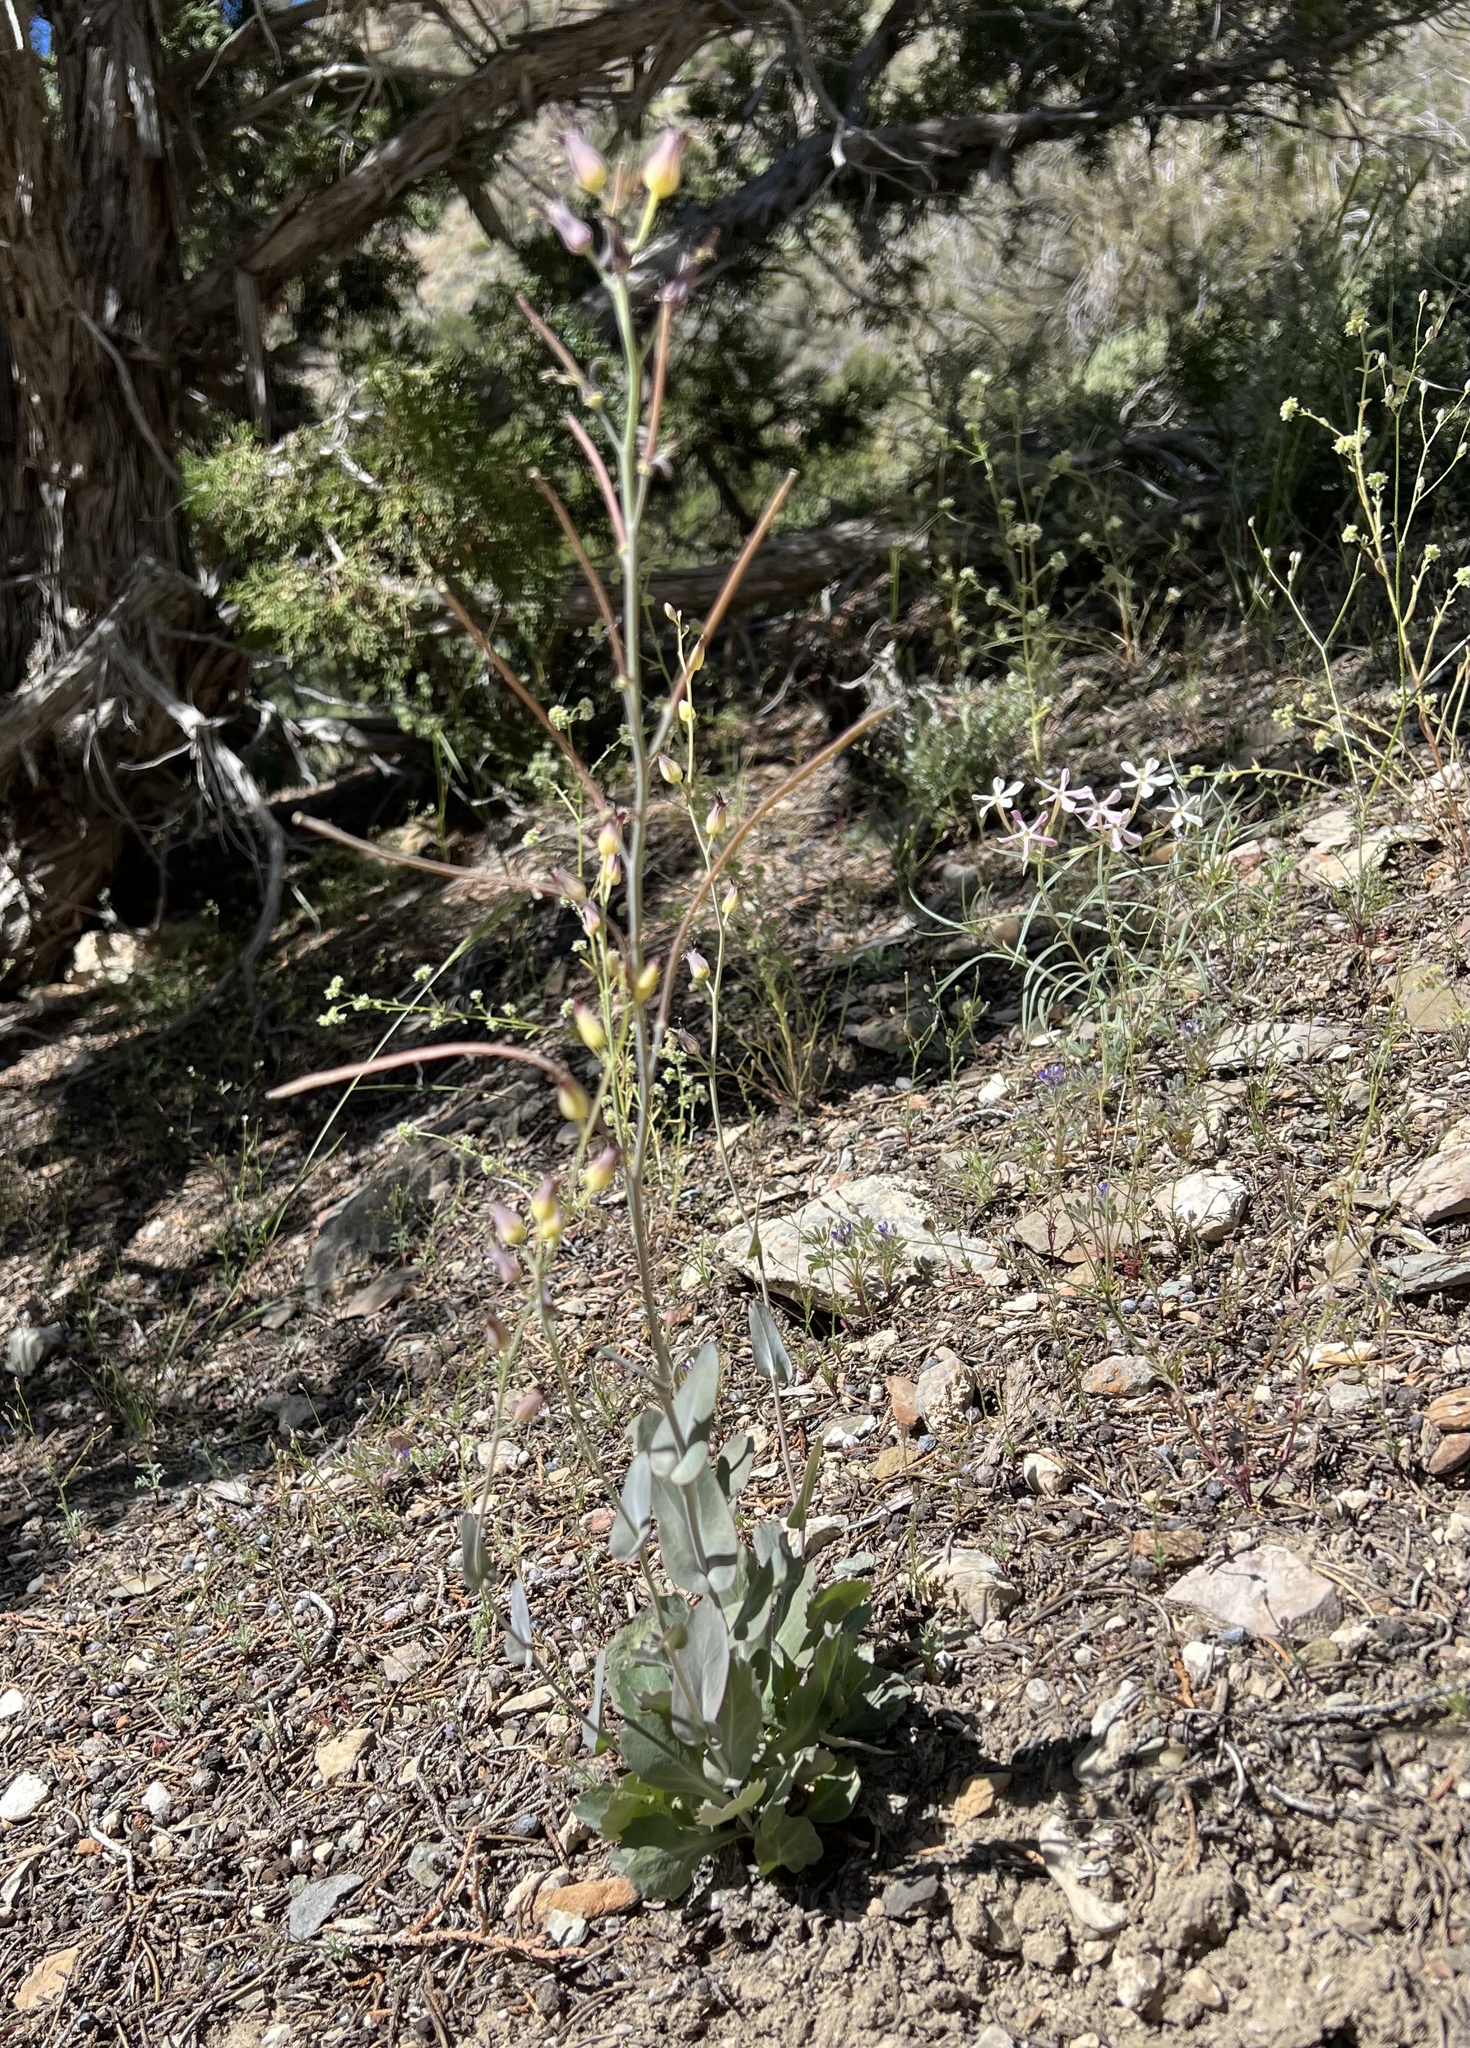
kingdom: Plantae
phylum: Tracheophyta
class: Magnoliopsida
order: Brassicales
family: Brassicaceae
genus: Streptanthus
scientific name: Streptanthus cordatus
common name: Heart-leaf jewel-flower
